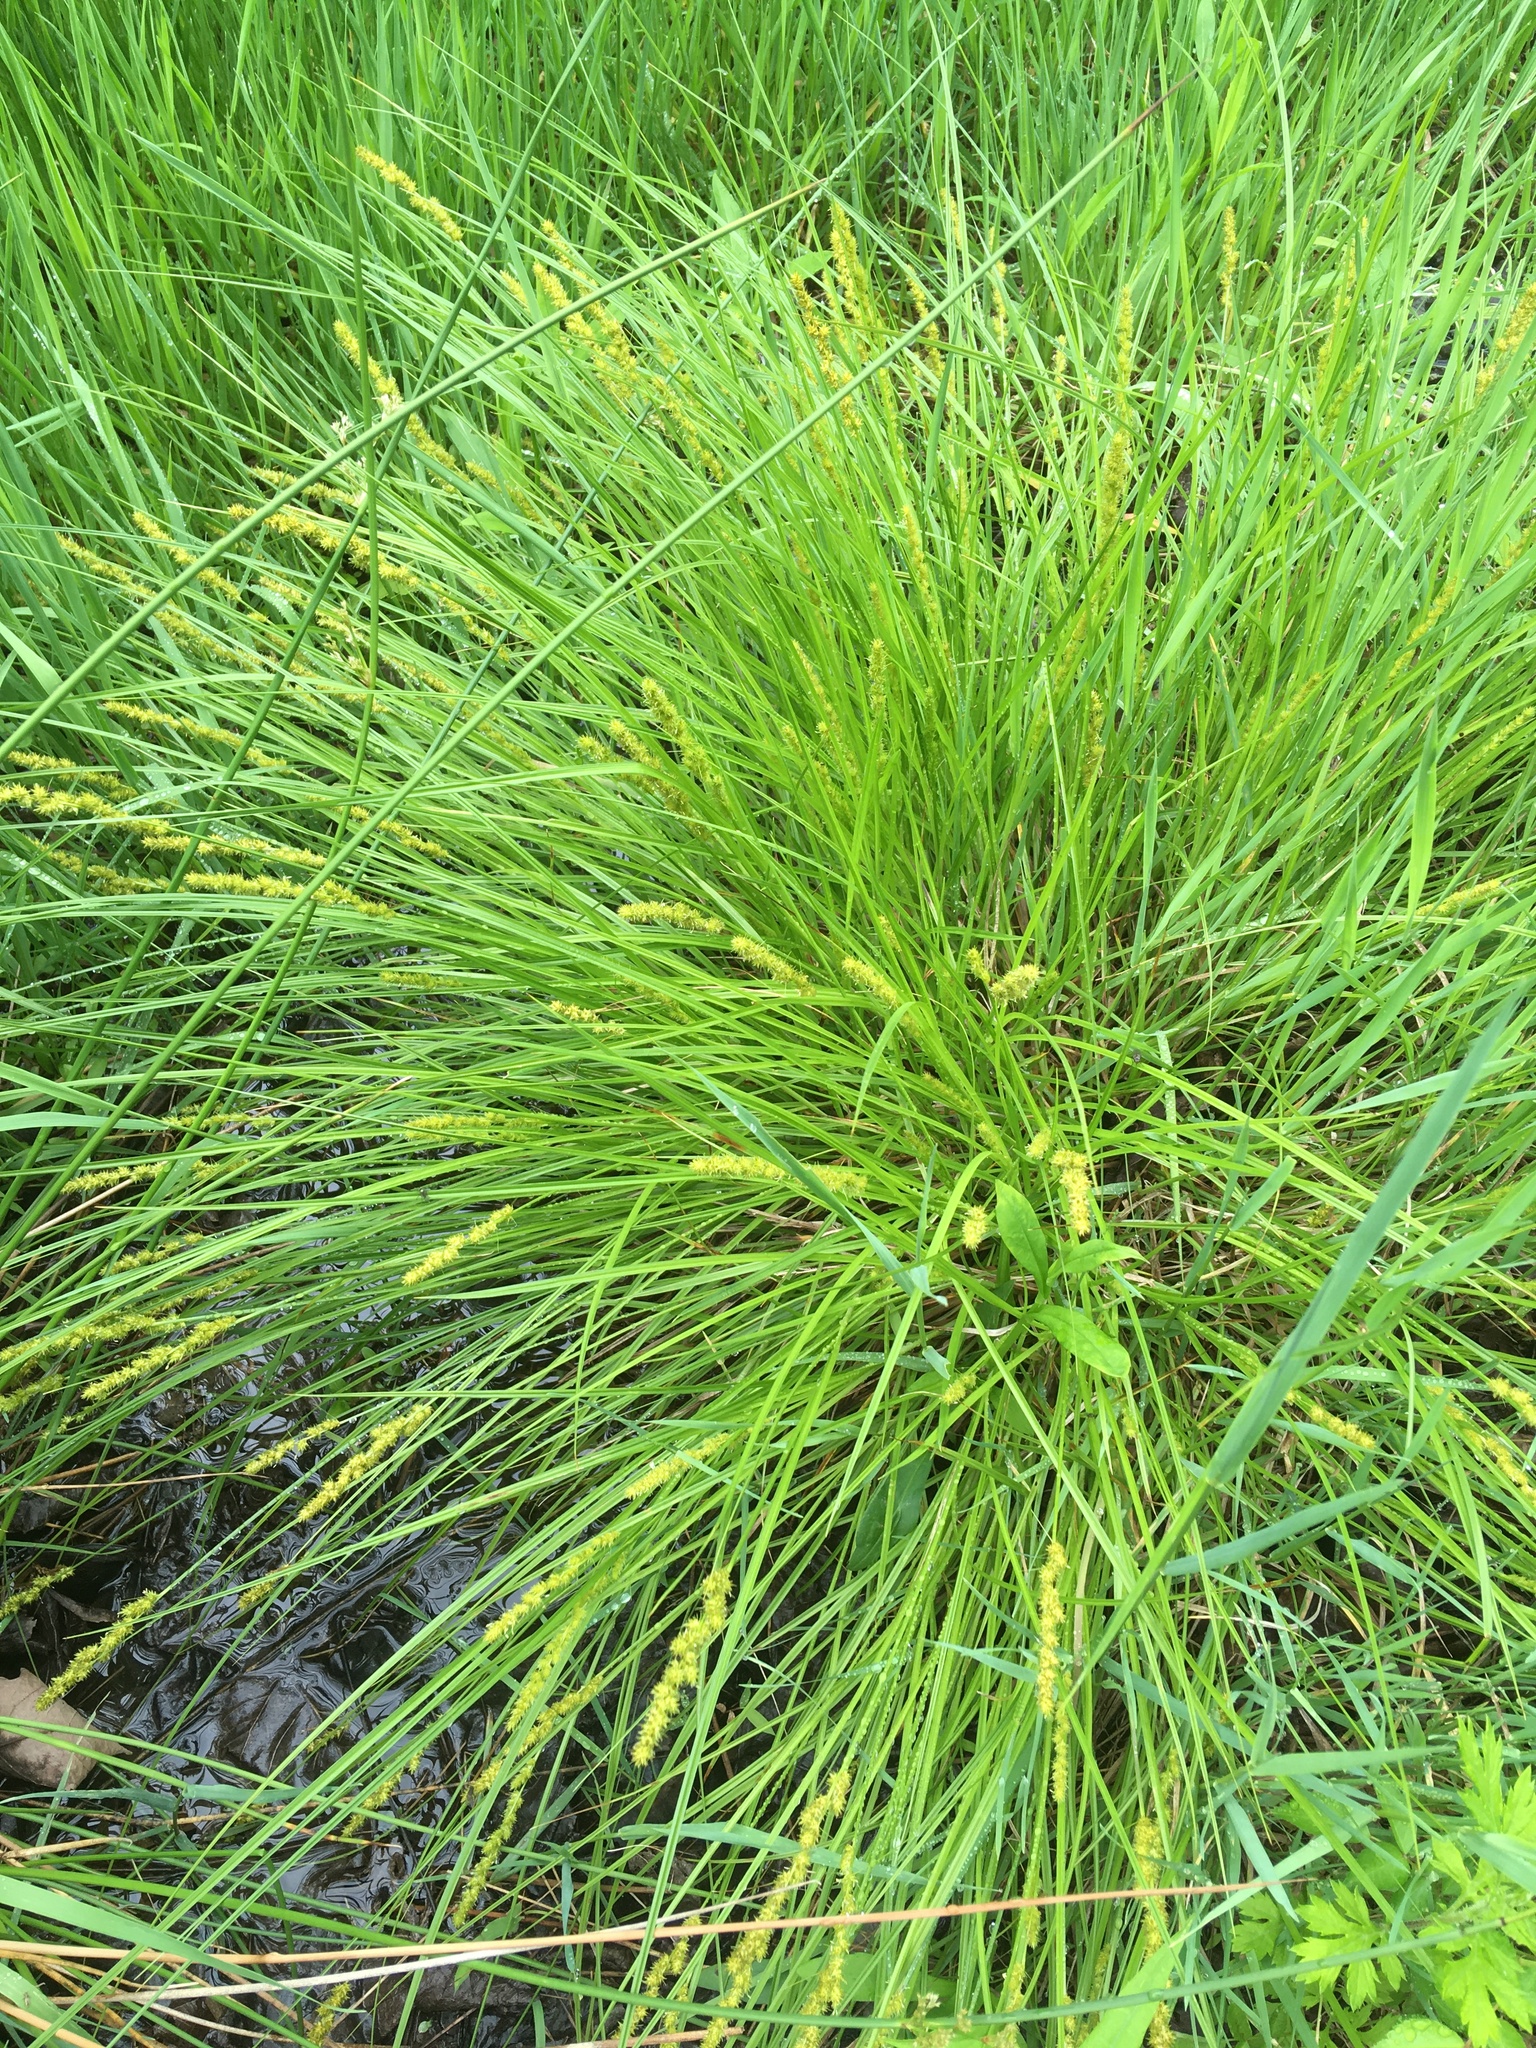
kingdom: Plantae
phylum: Tracheophyta
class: Liliopsida
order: Poales
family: Cyperaceae
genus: Carex
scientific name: Carex vulpinoidea
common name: American fox-sedge
